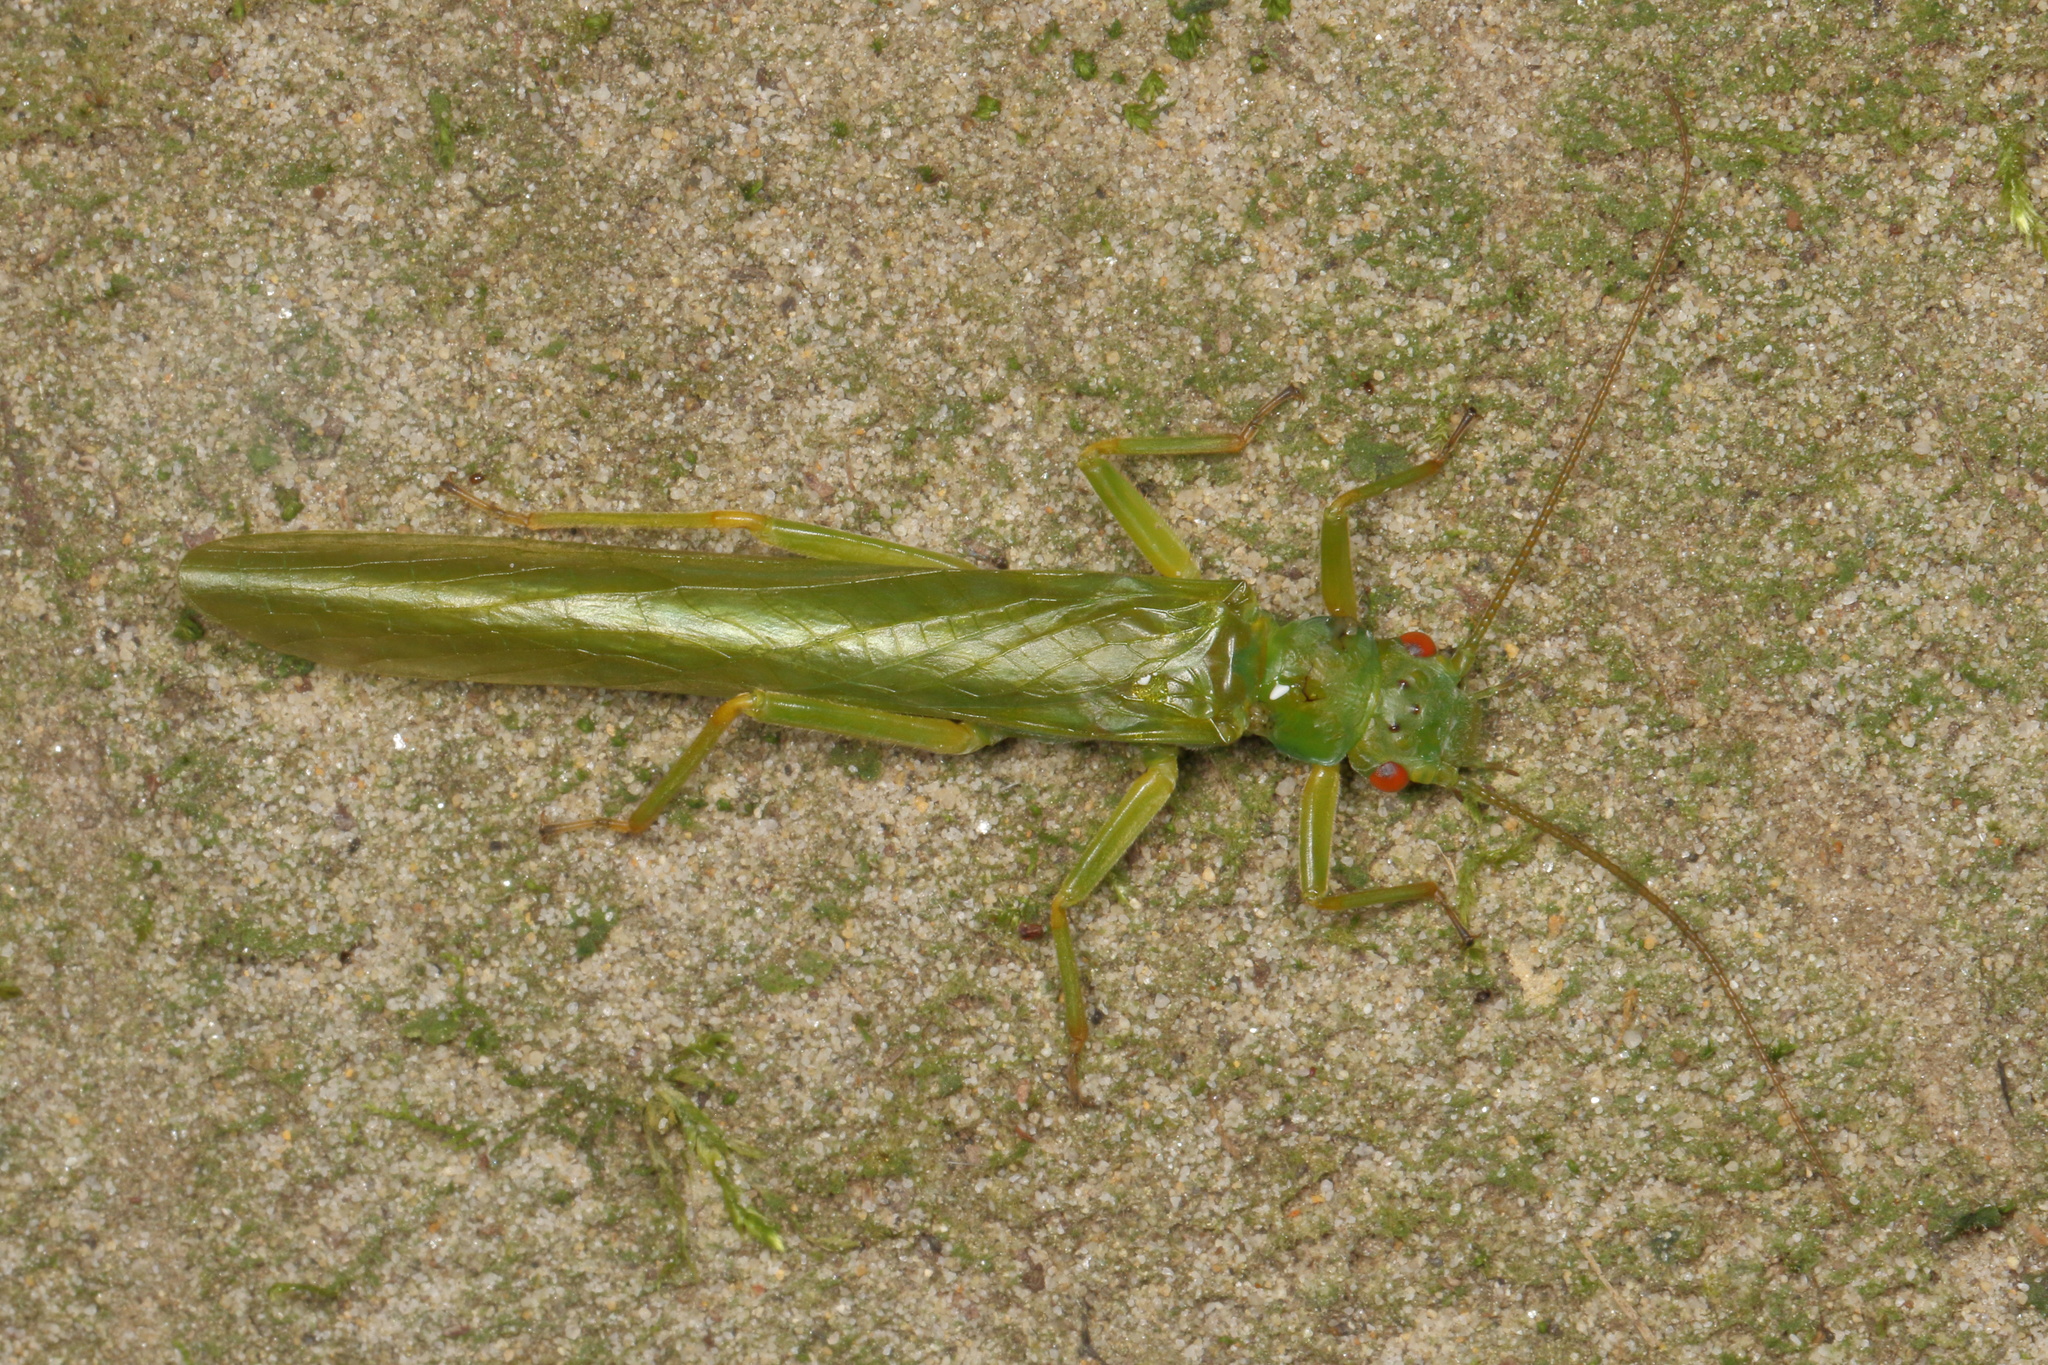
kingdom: Animalia
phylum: Arthropoda
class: Insecta
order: Plecoptera
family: Eustheniidae
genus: Stenoperla
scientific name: Stenoperla prasina
